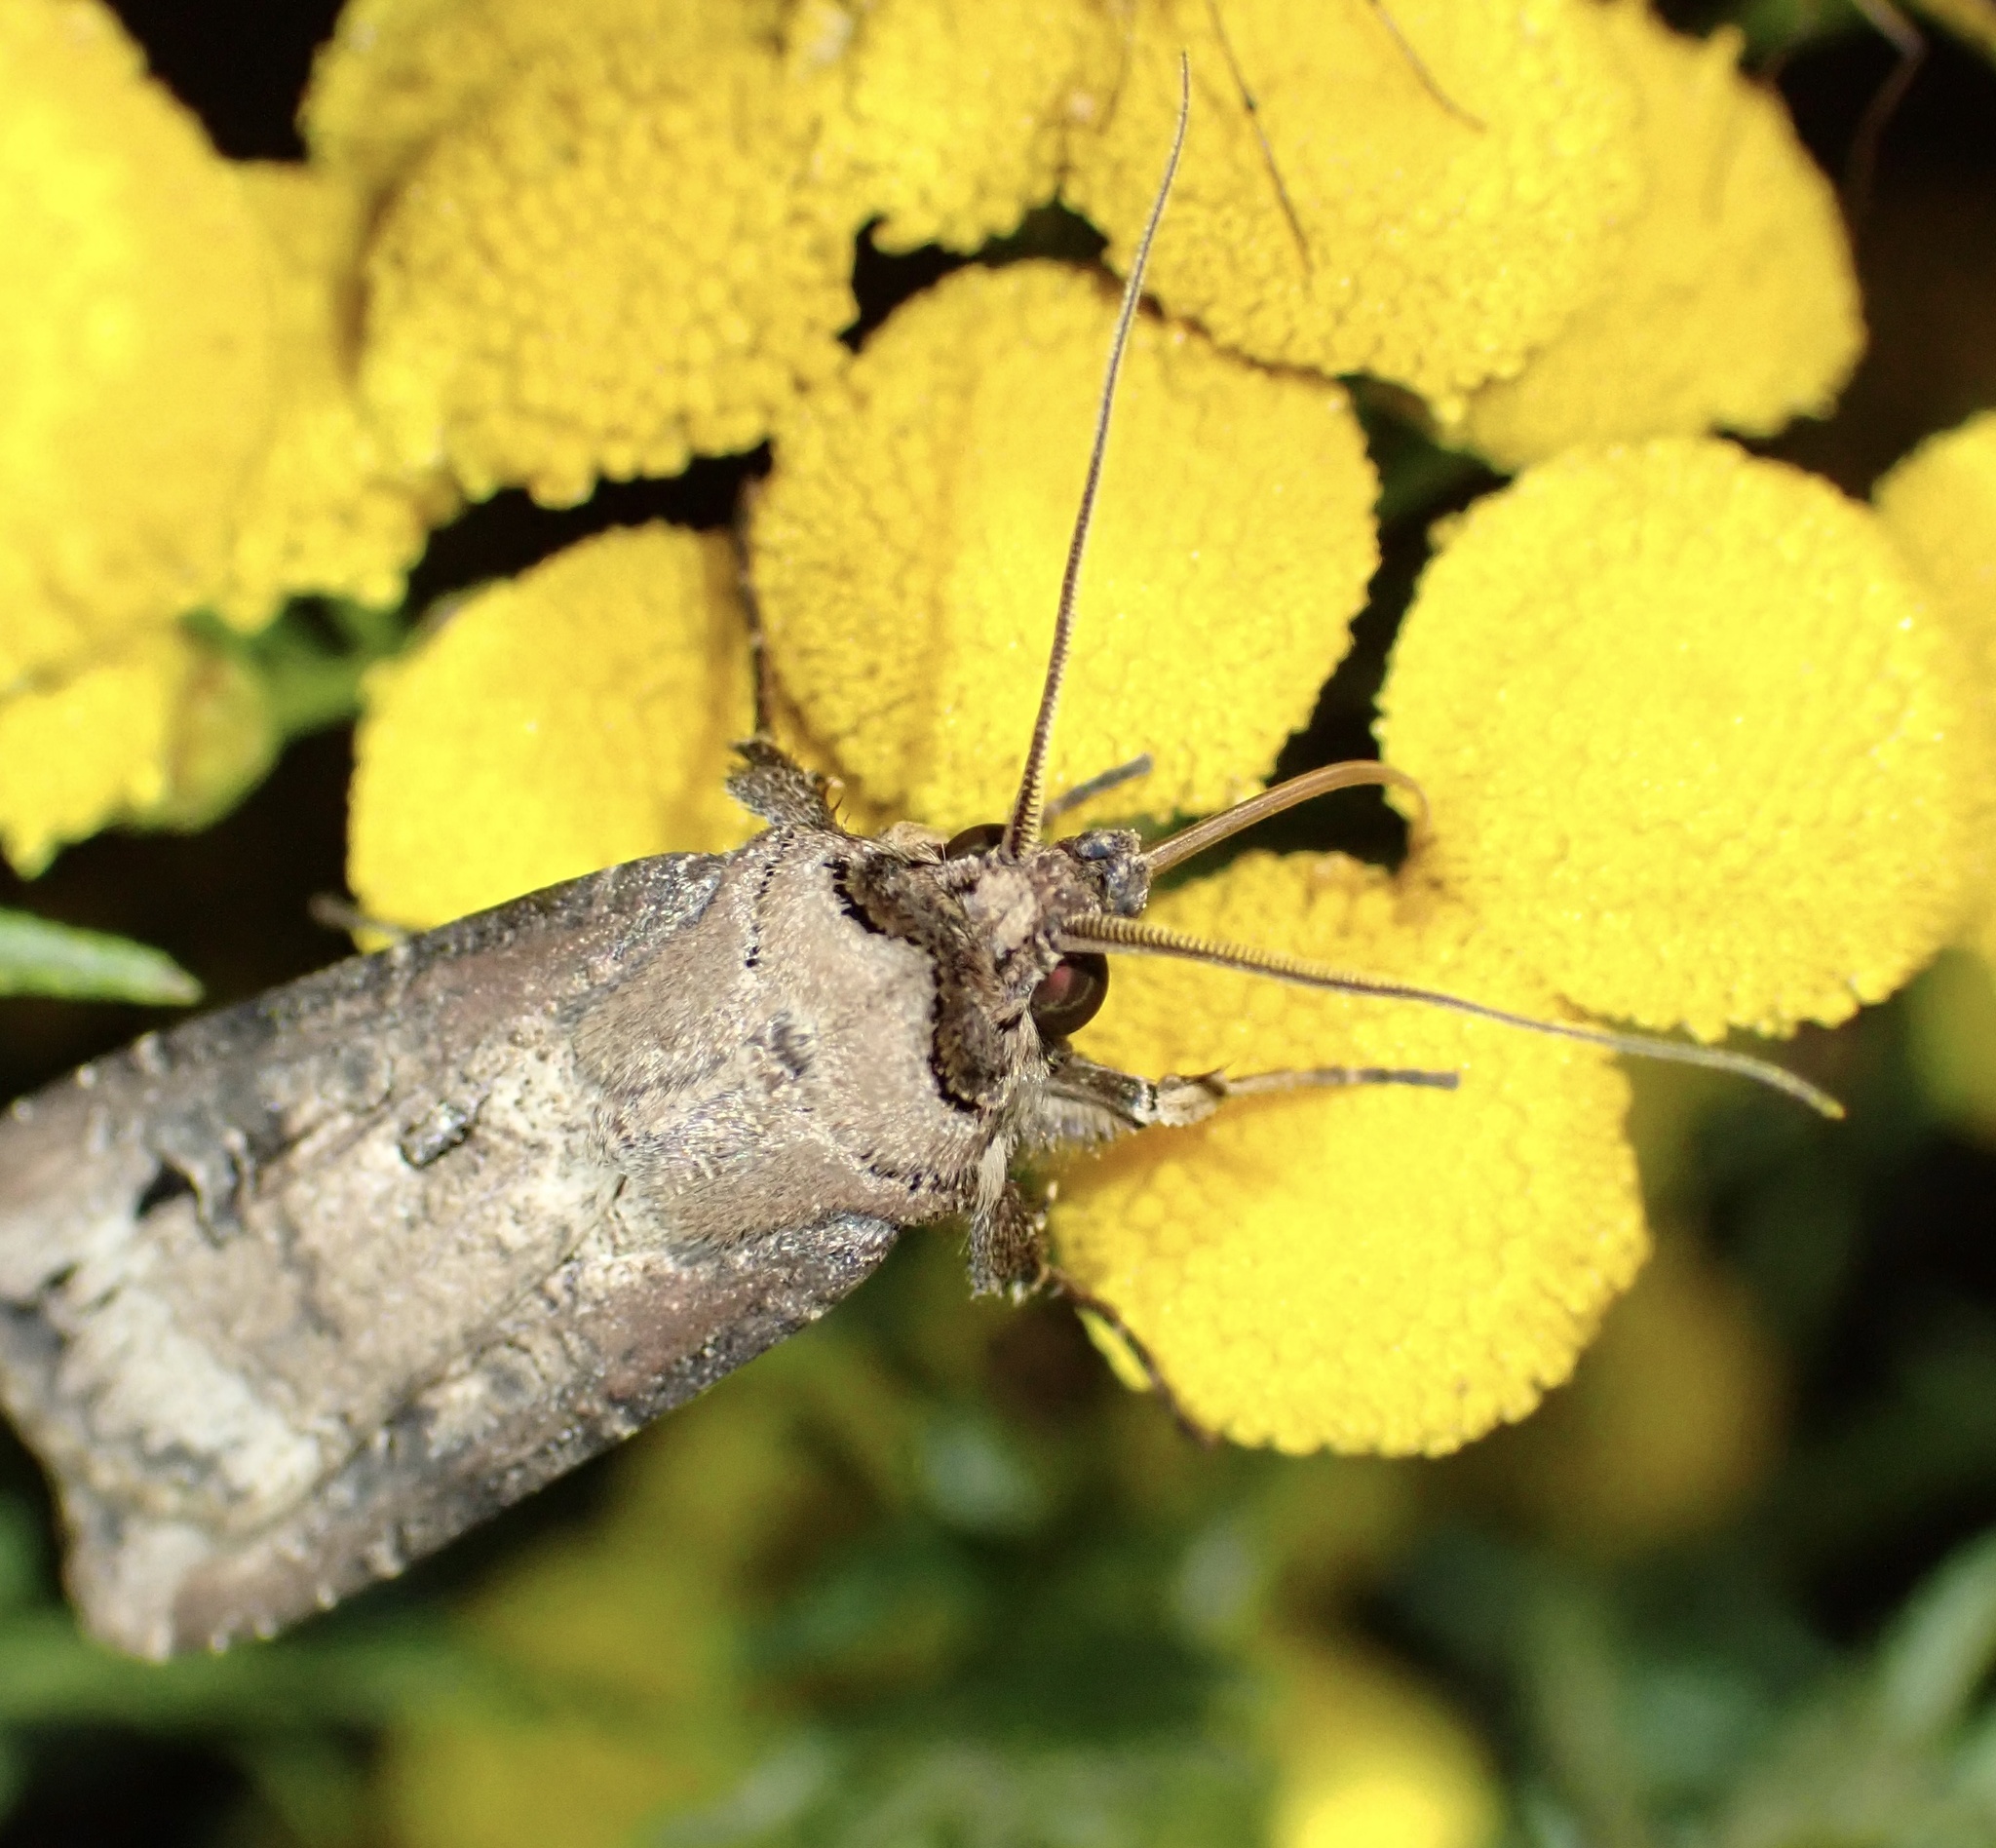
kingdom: Animalia
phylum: Arthropoda
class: Insecta
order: Lepidoptera
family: Noctuidae
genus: Agrotis
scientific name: Agrotis ipsilon
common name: Dark sword-grass
